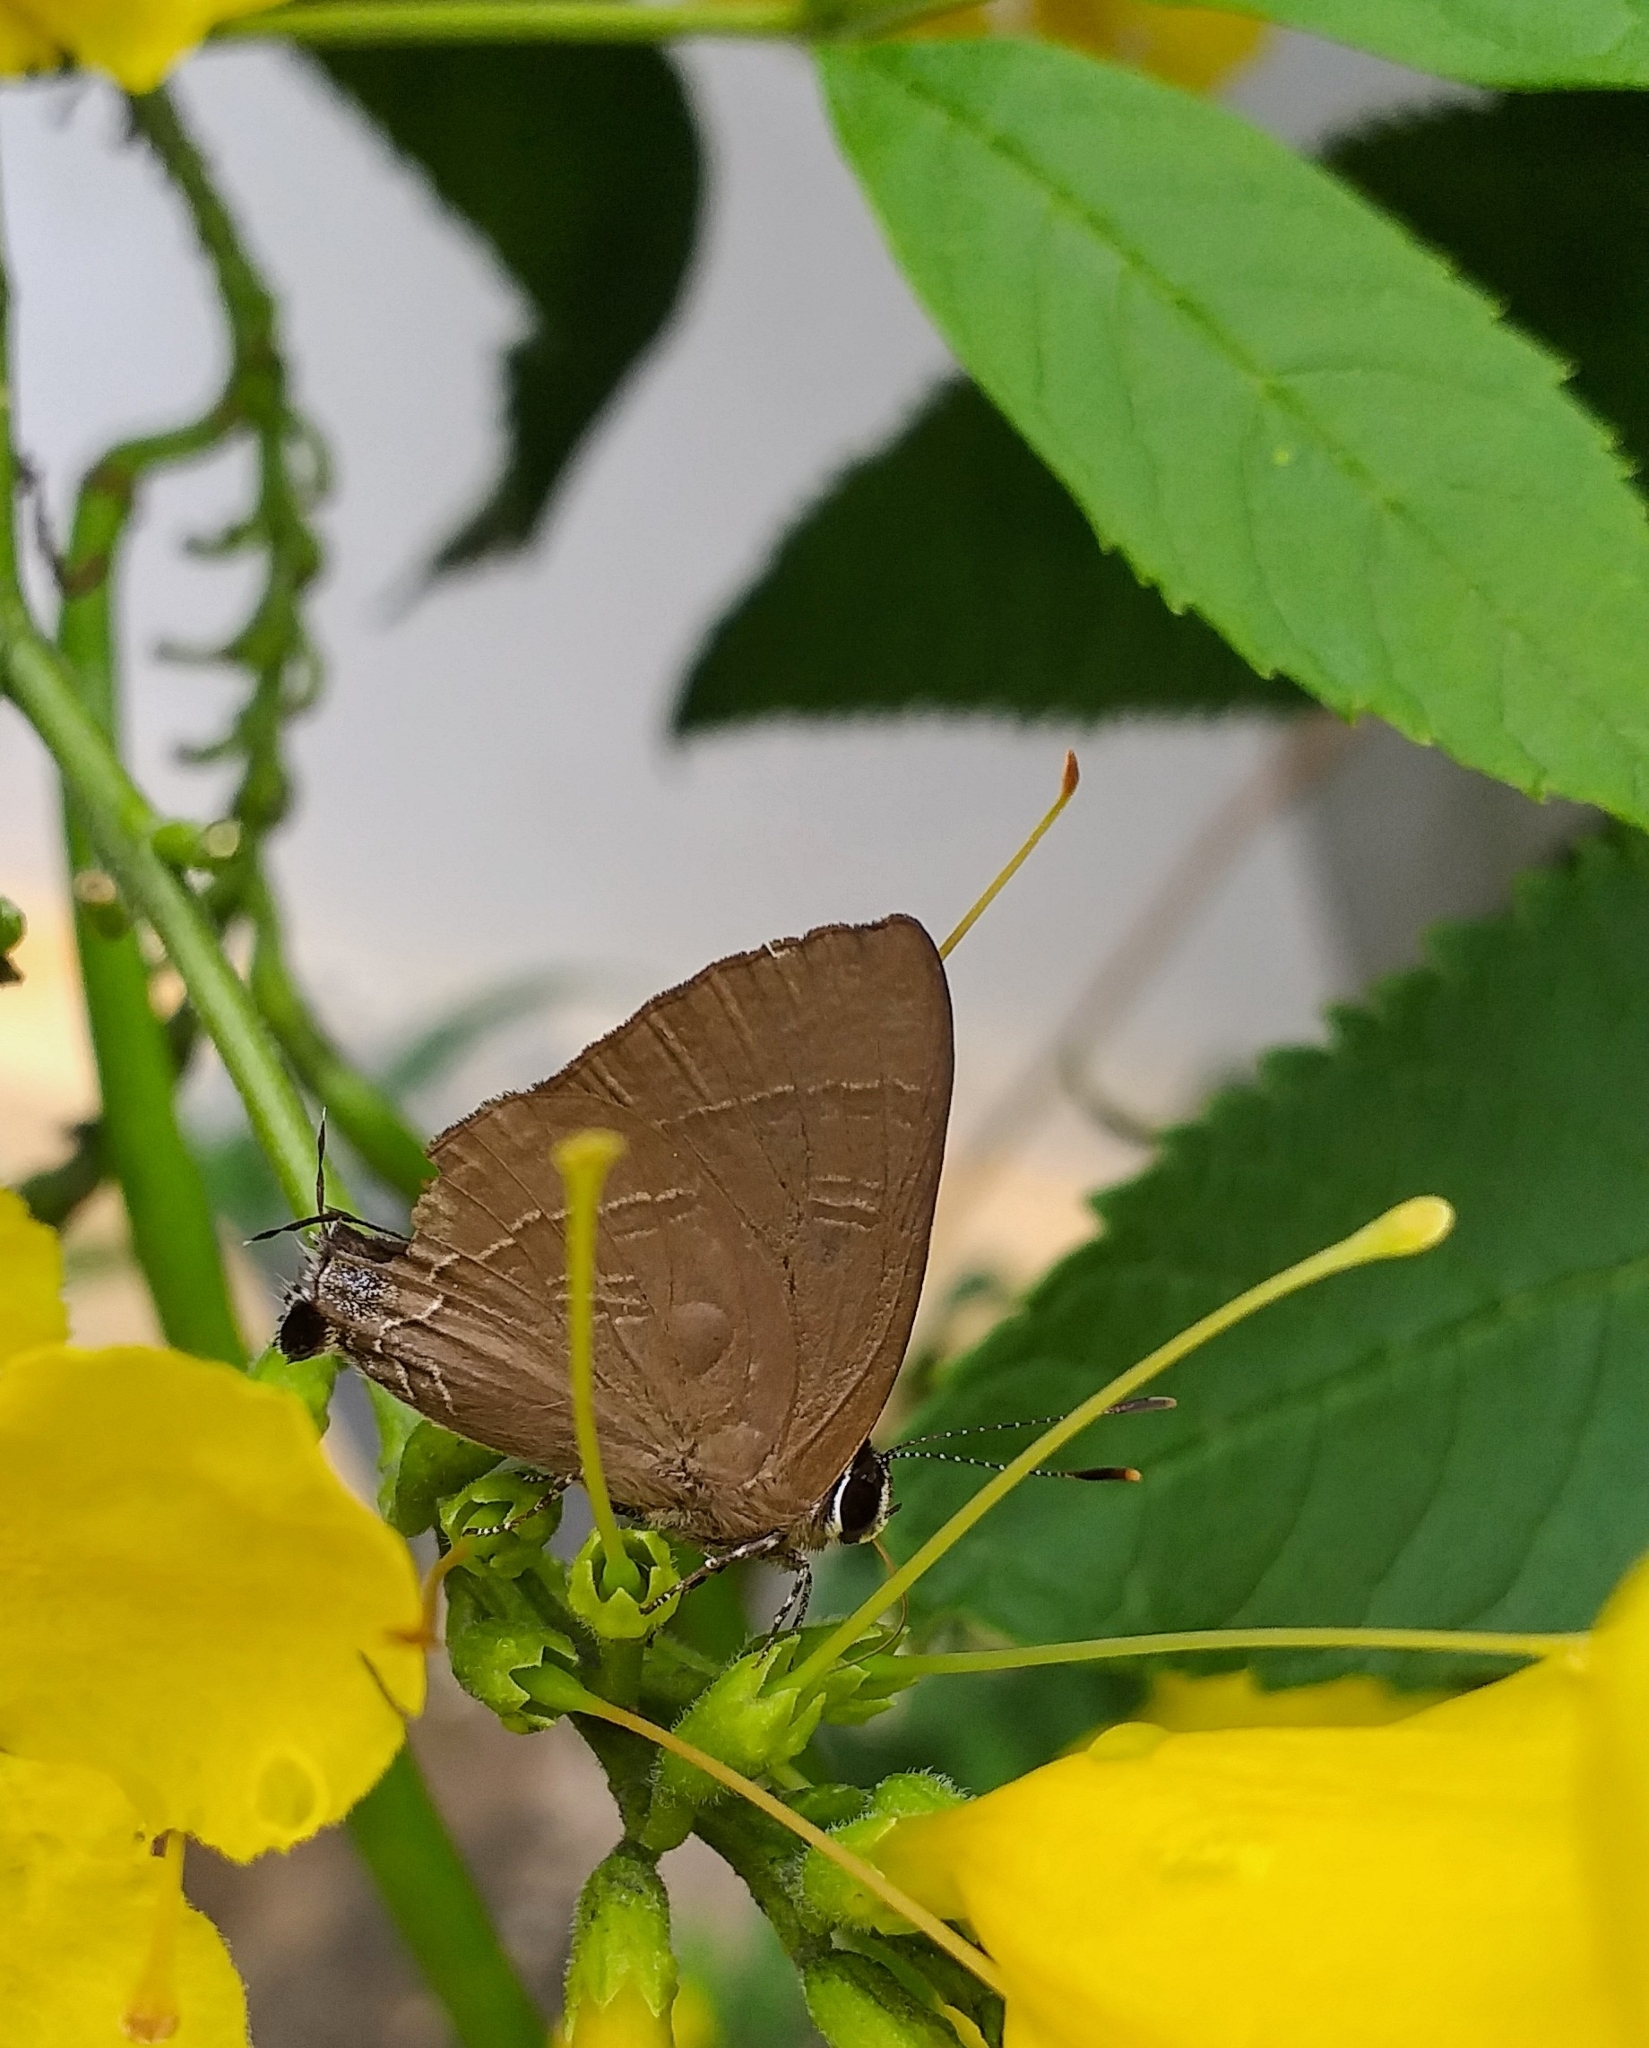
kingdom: Animalia
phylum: Arthropoda
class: Insecta
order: Lepidoptera
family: Lycaenidae
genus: Rapala
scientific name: Rapala manea
